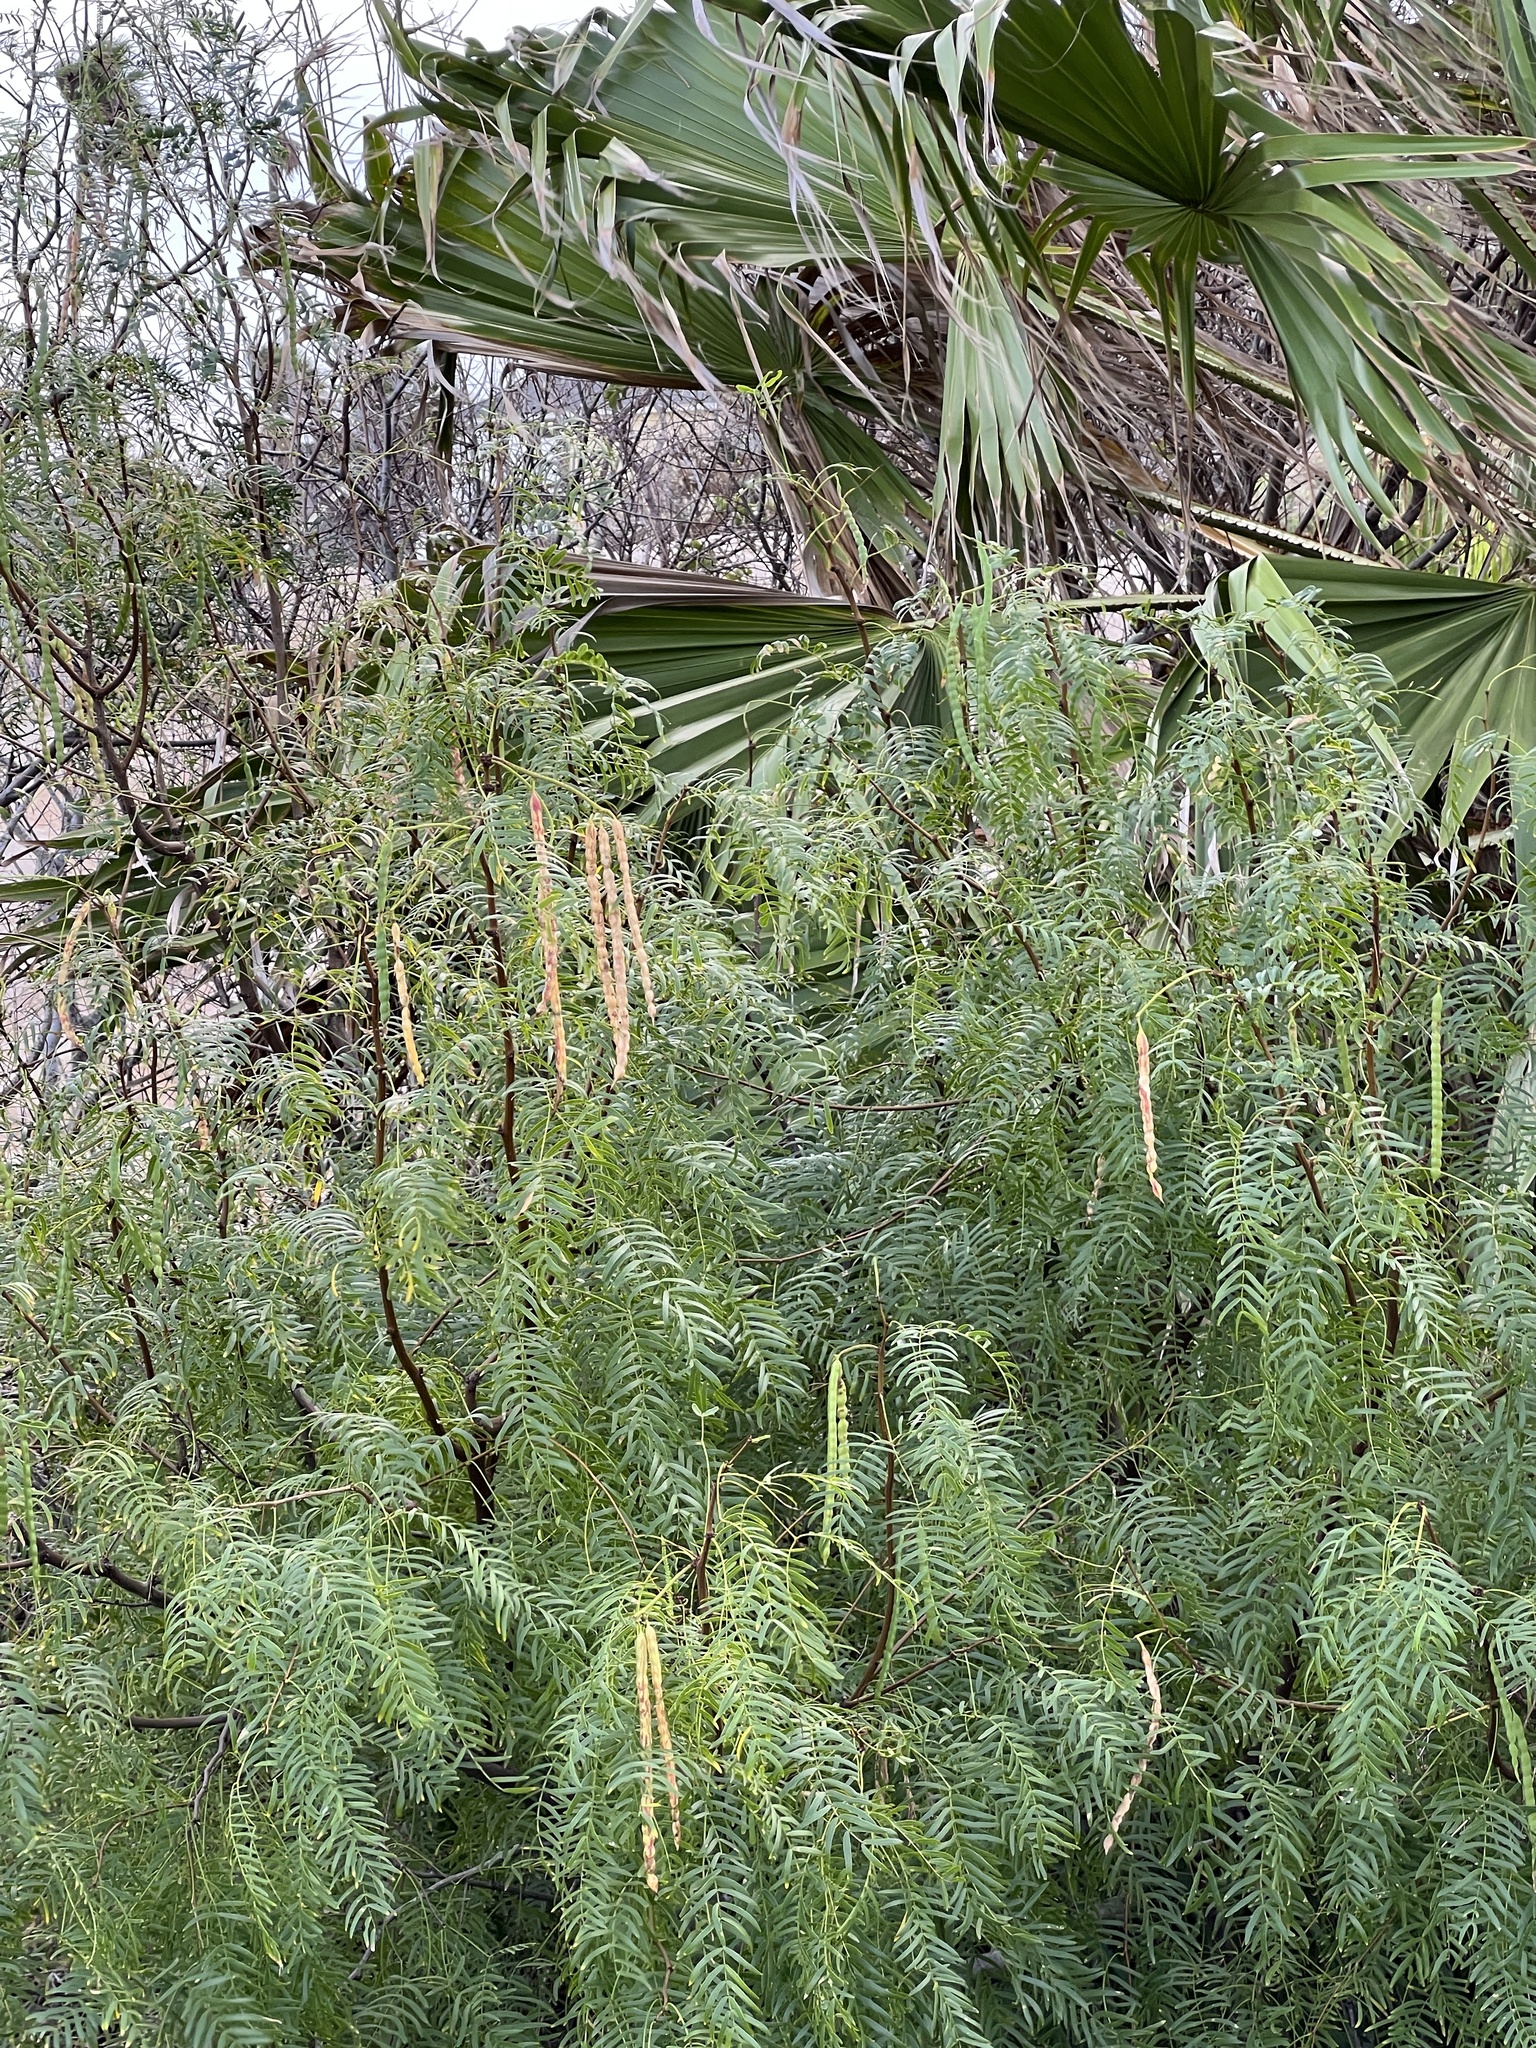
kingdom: Plantae
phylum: Tracheophyta
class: Magnoliopsida
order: Fabales
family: Fabaceae
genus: Prosopis
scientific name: Prosopis glandulosa
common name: Honey mesquite
